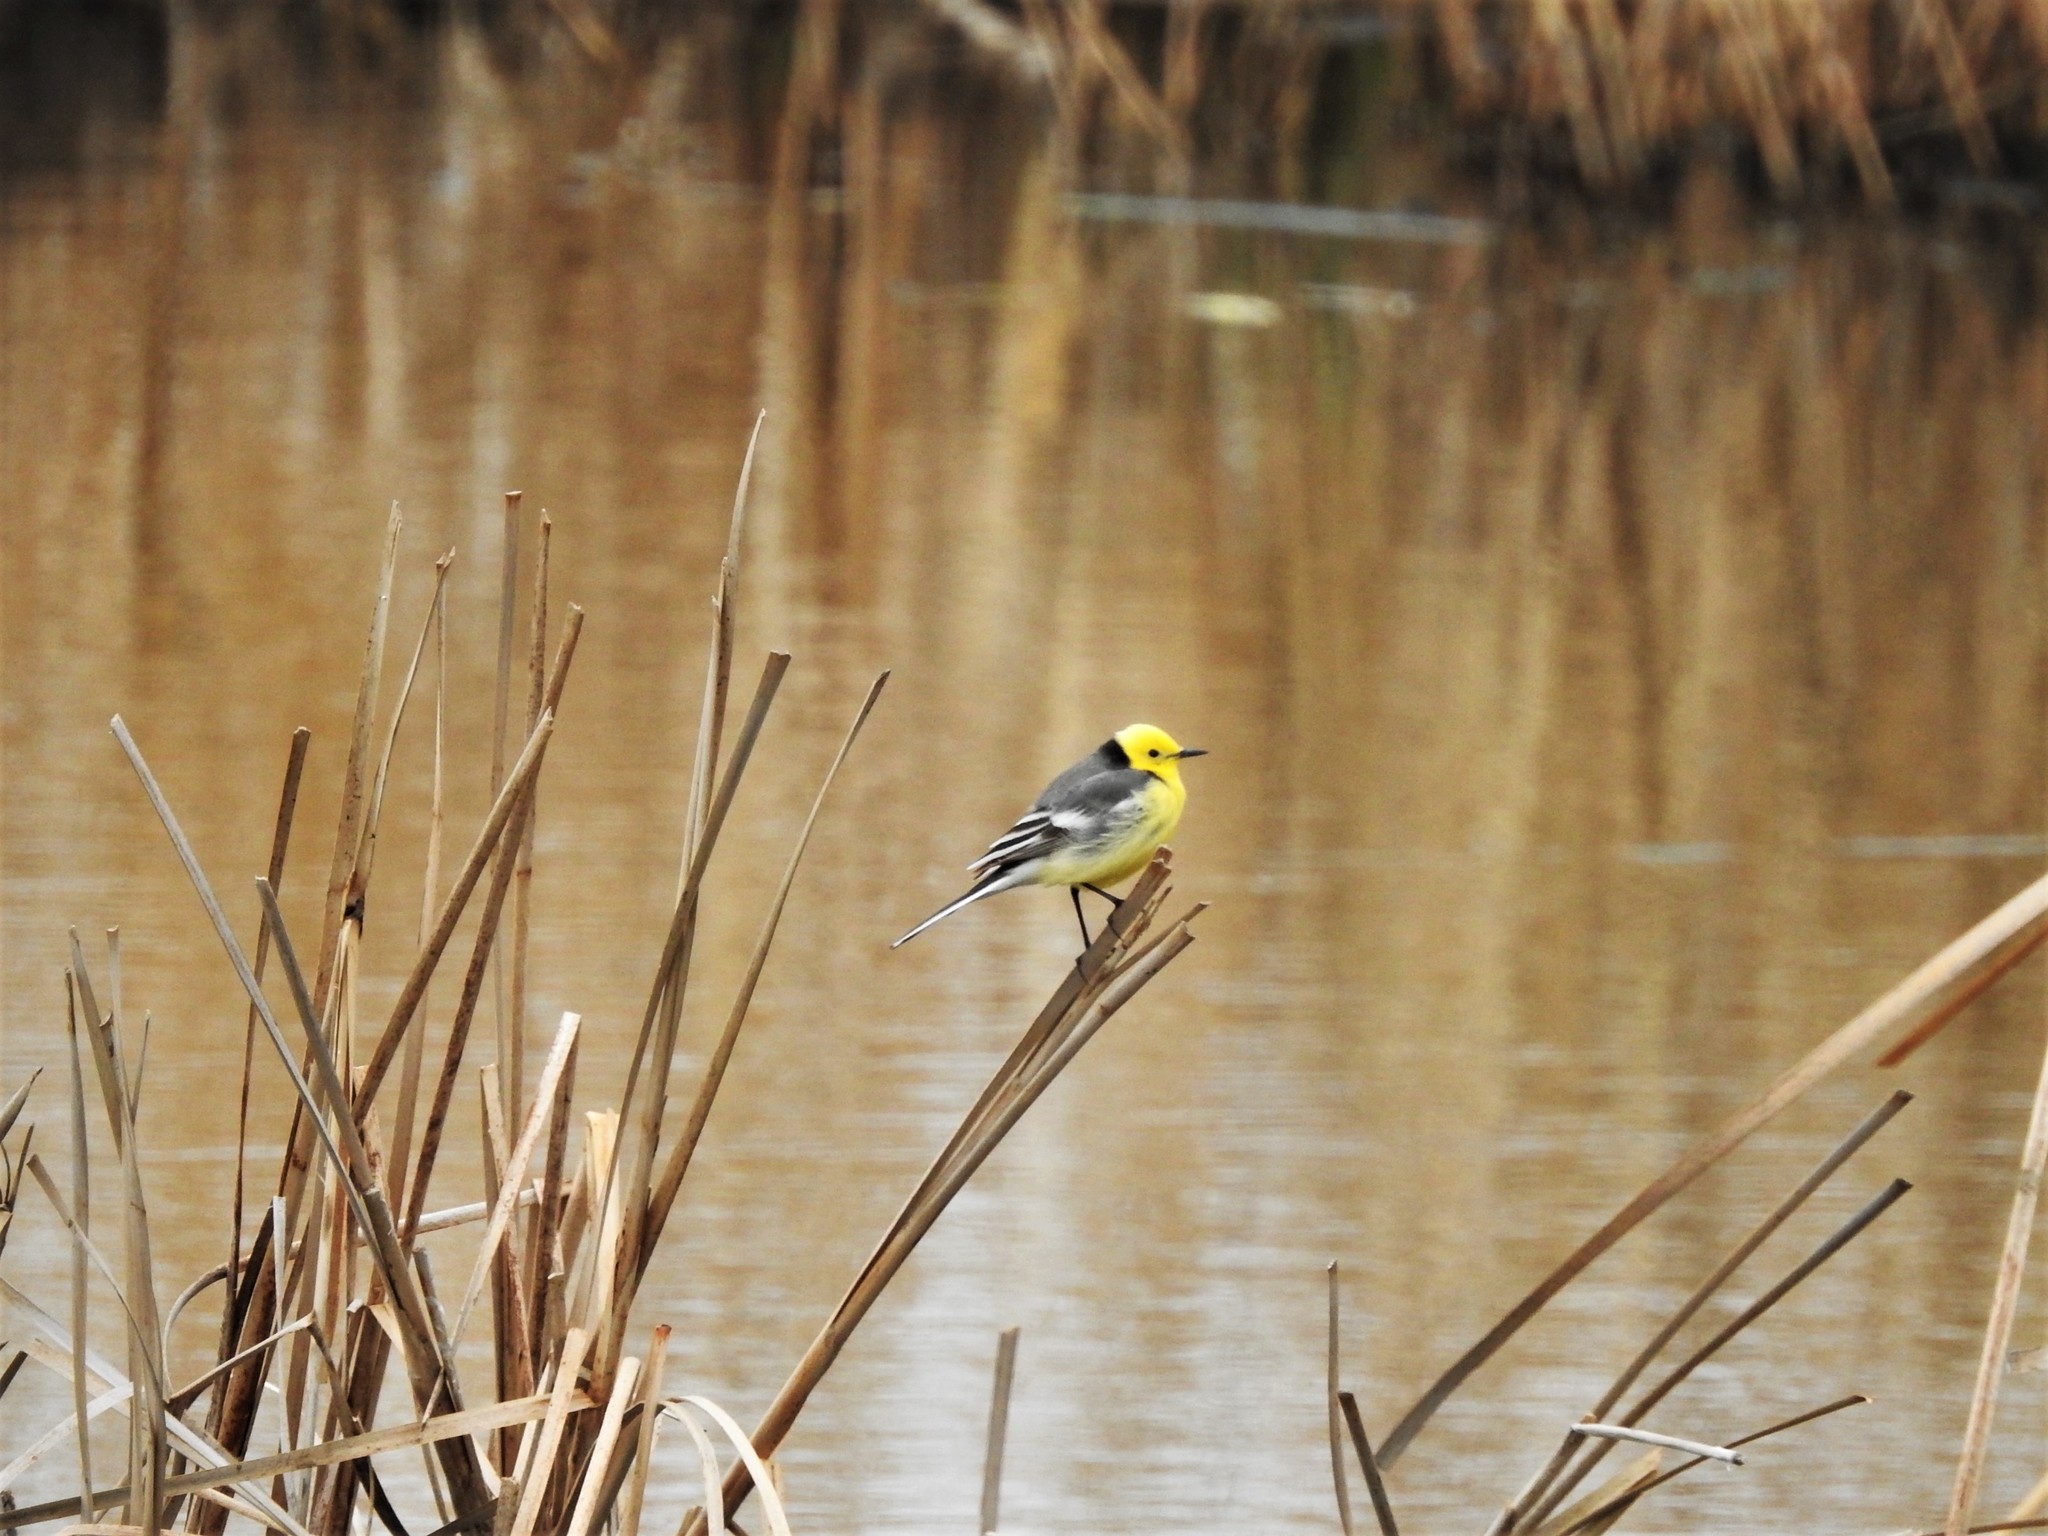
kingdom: Animalia
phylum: Chordata
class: Aves
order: Passeriformes
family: Motacillidae
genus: Motacilla
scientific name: Motacilla citreola
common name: Citrine wagtail
